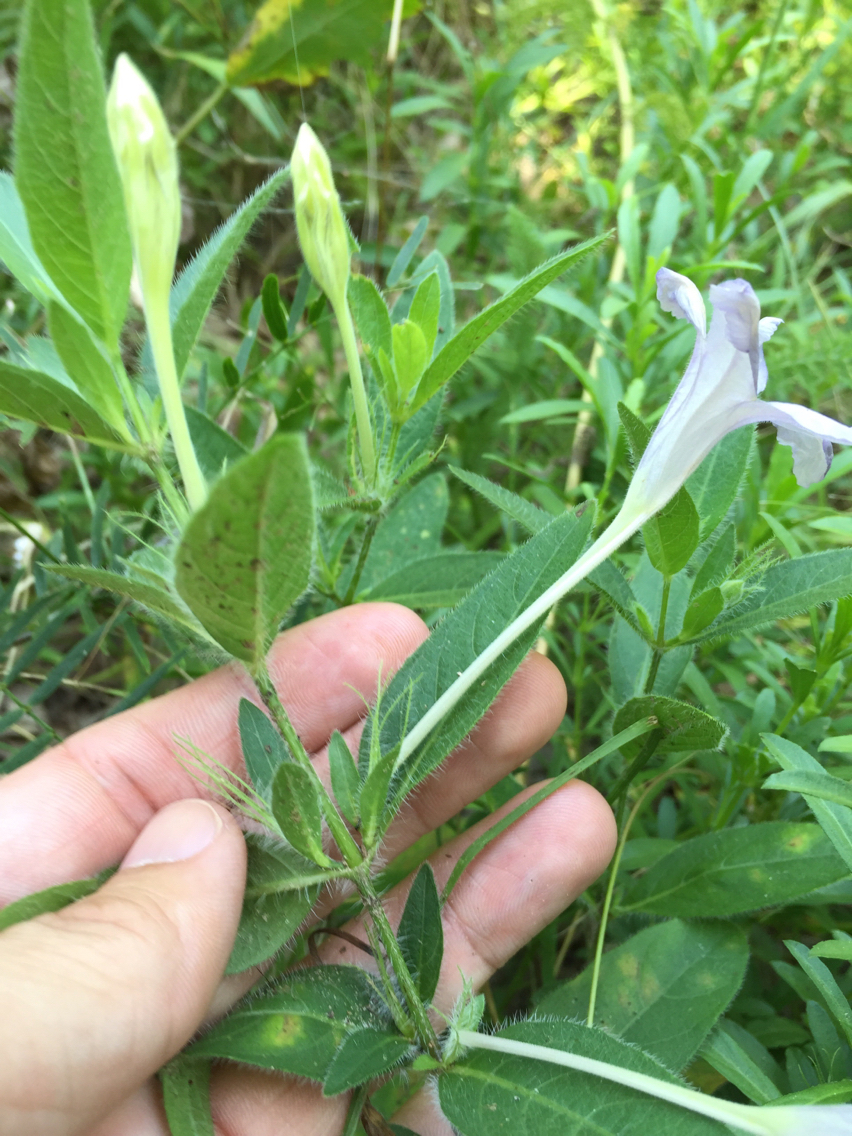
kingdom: Plantae
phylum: Tracheophyta
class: Magnoliopsida
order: Lamiales
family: Acanthaceae
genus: Ruellia
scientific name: Ruellia humilis
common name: Fringe-leaf ruellia
